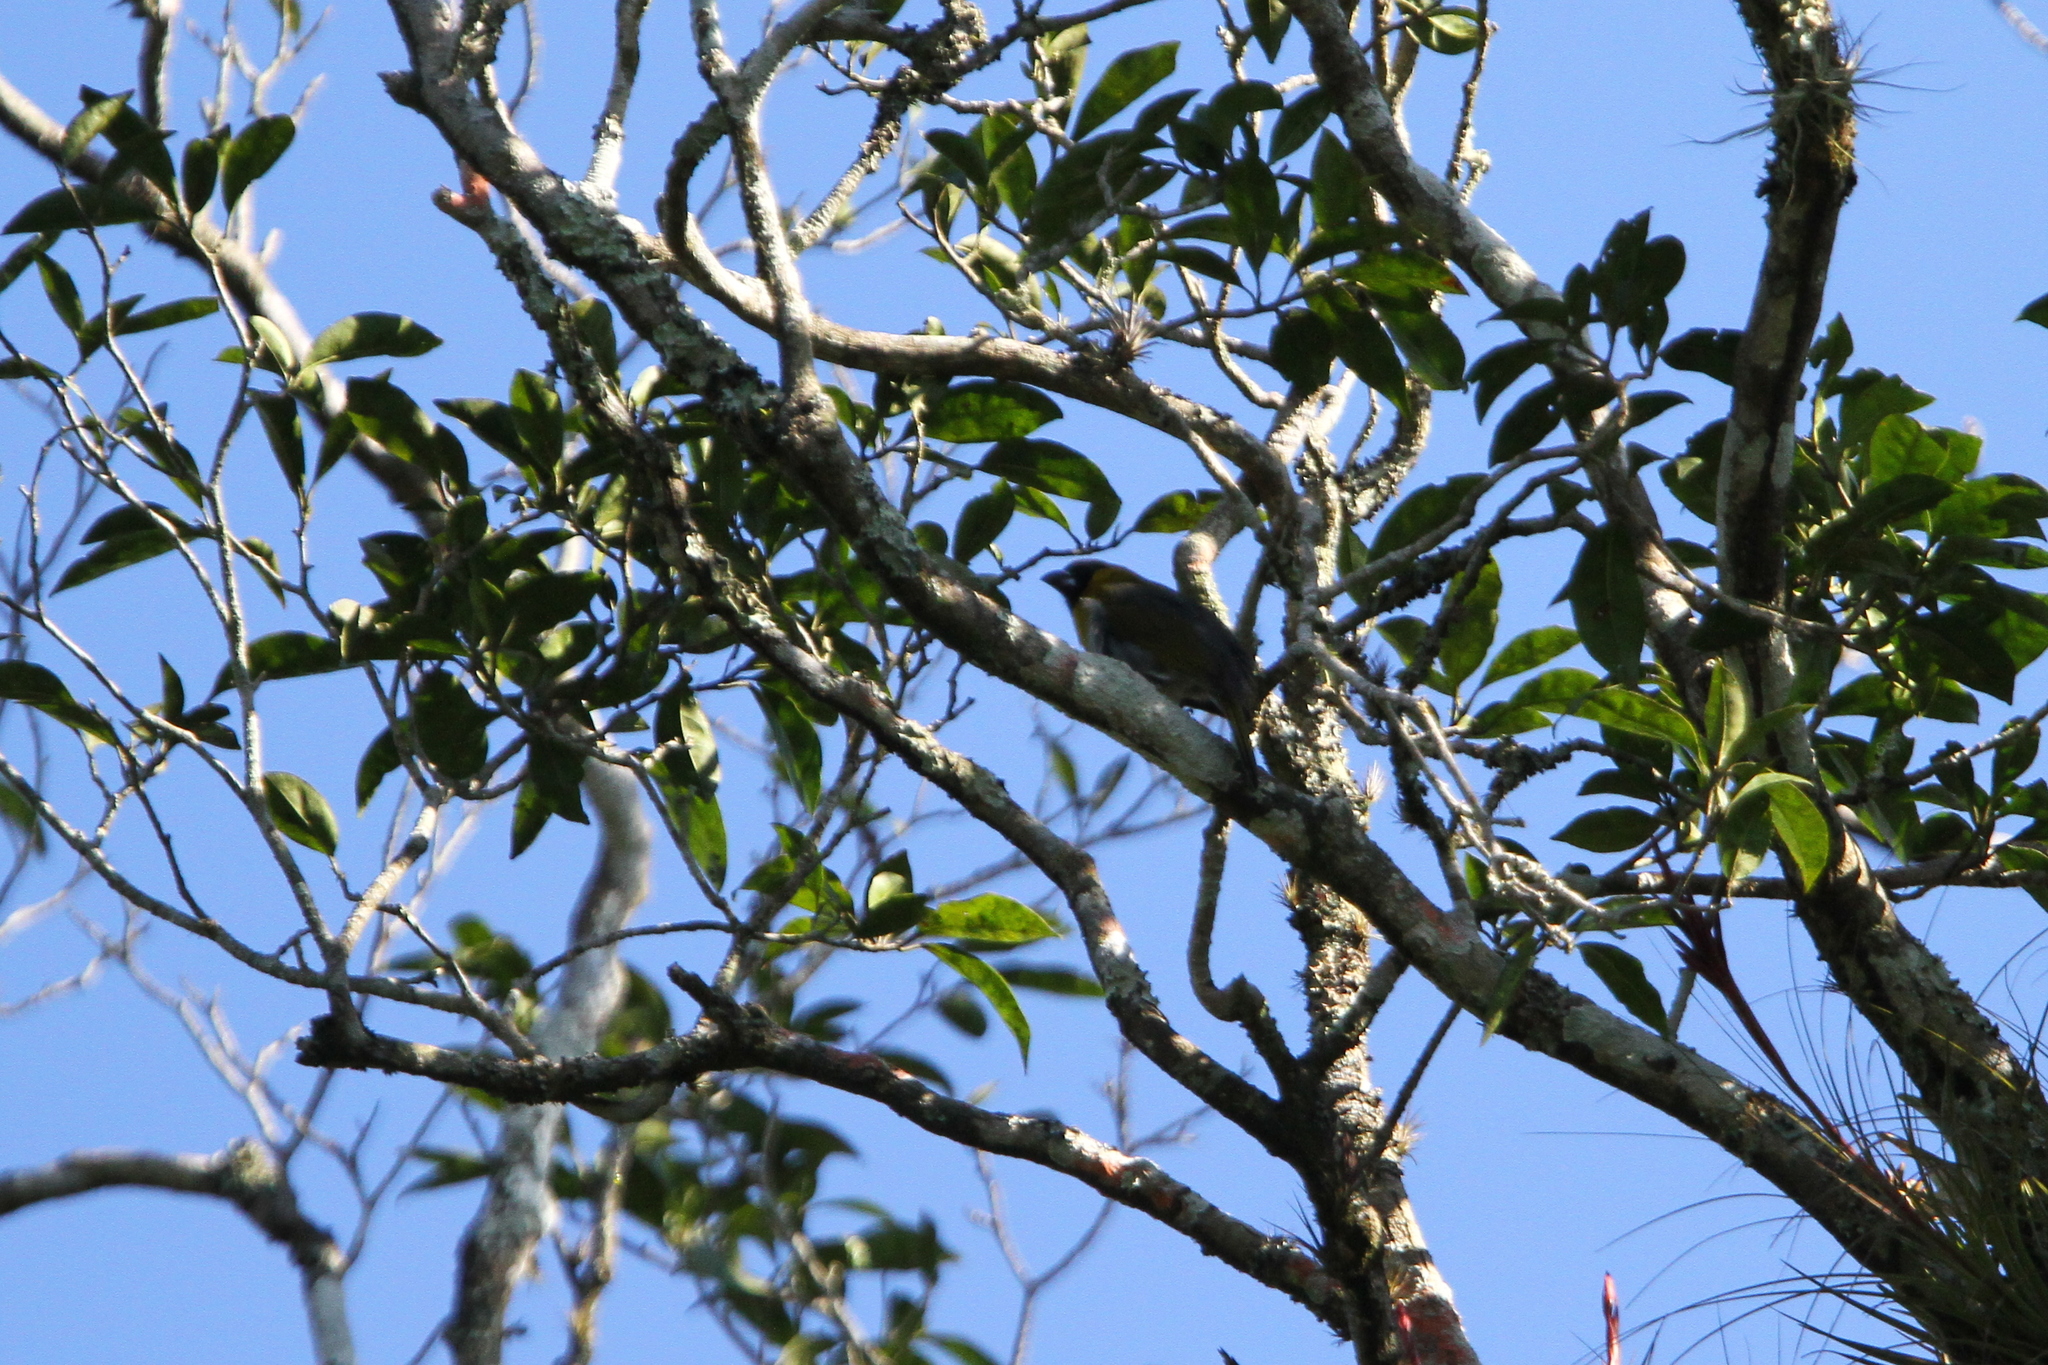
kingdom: Animalia
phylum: Chordata
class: Aves
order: Passeriformes
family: Cardinalidae
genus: Caryothraustes
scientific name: Caryothraustes poliogaster
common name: Black-faced grosbeak
